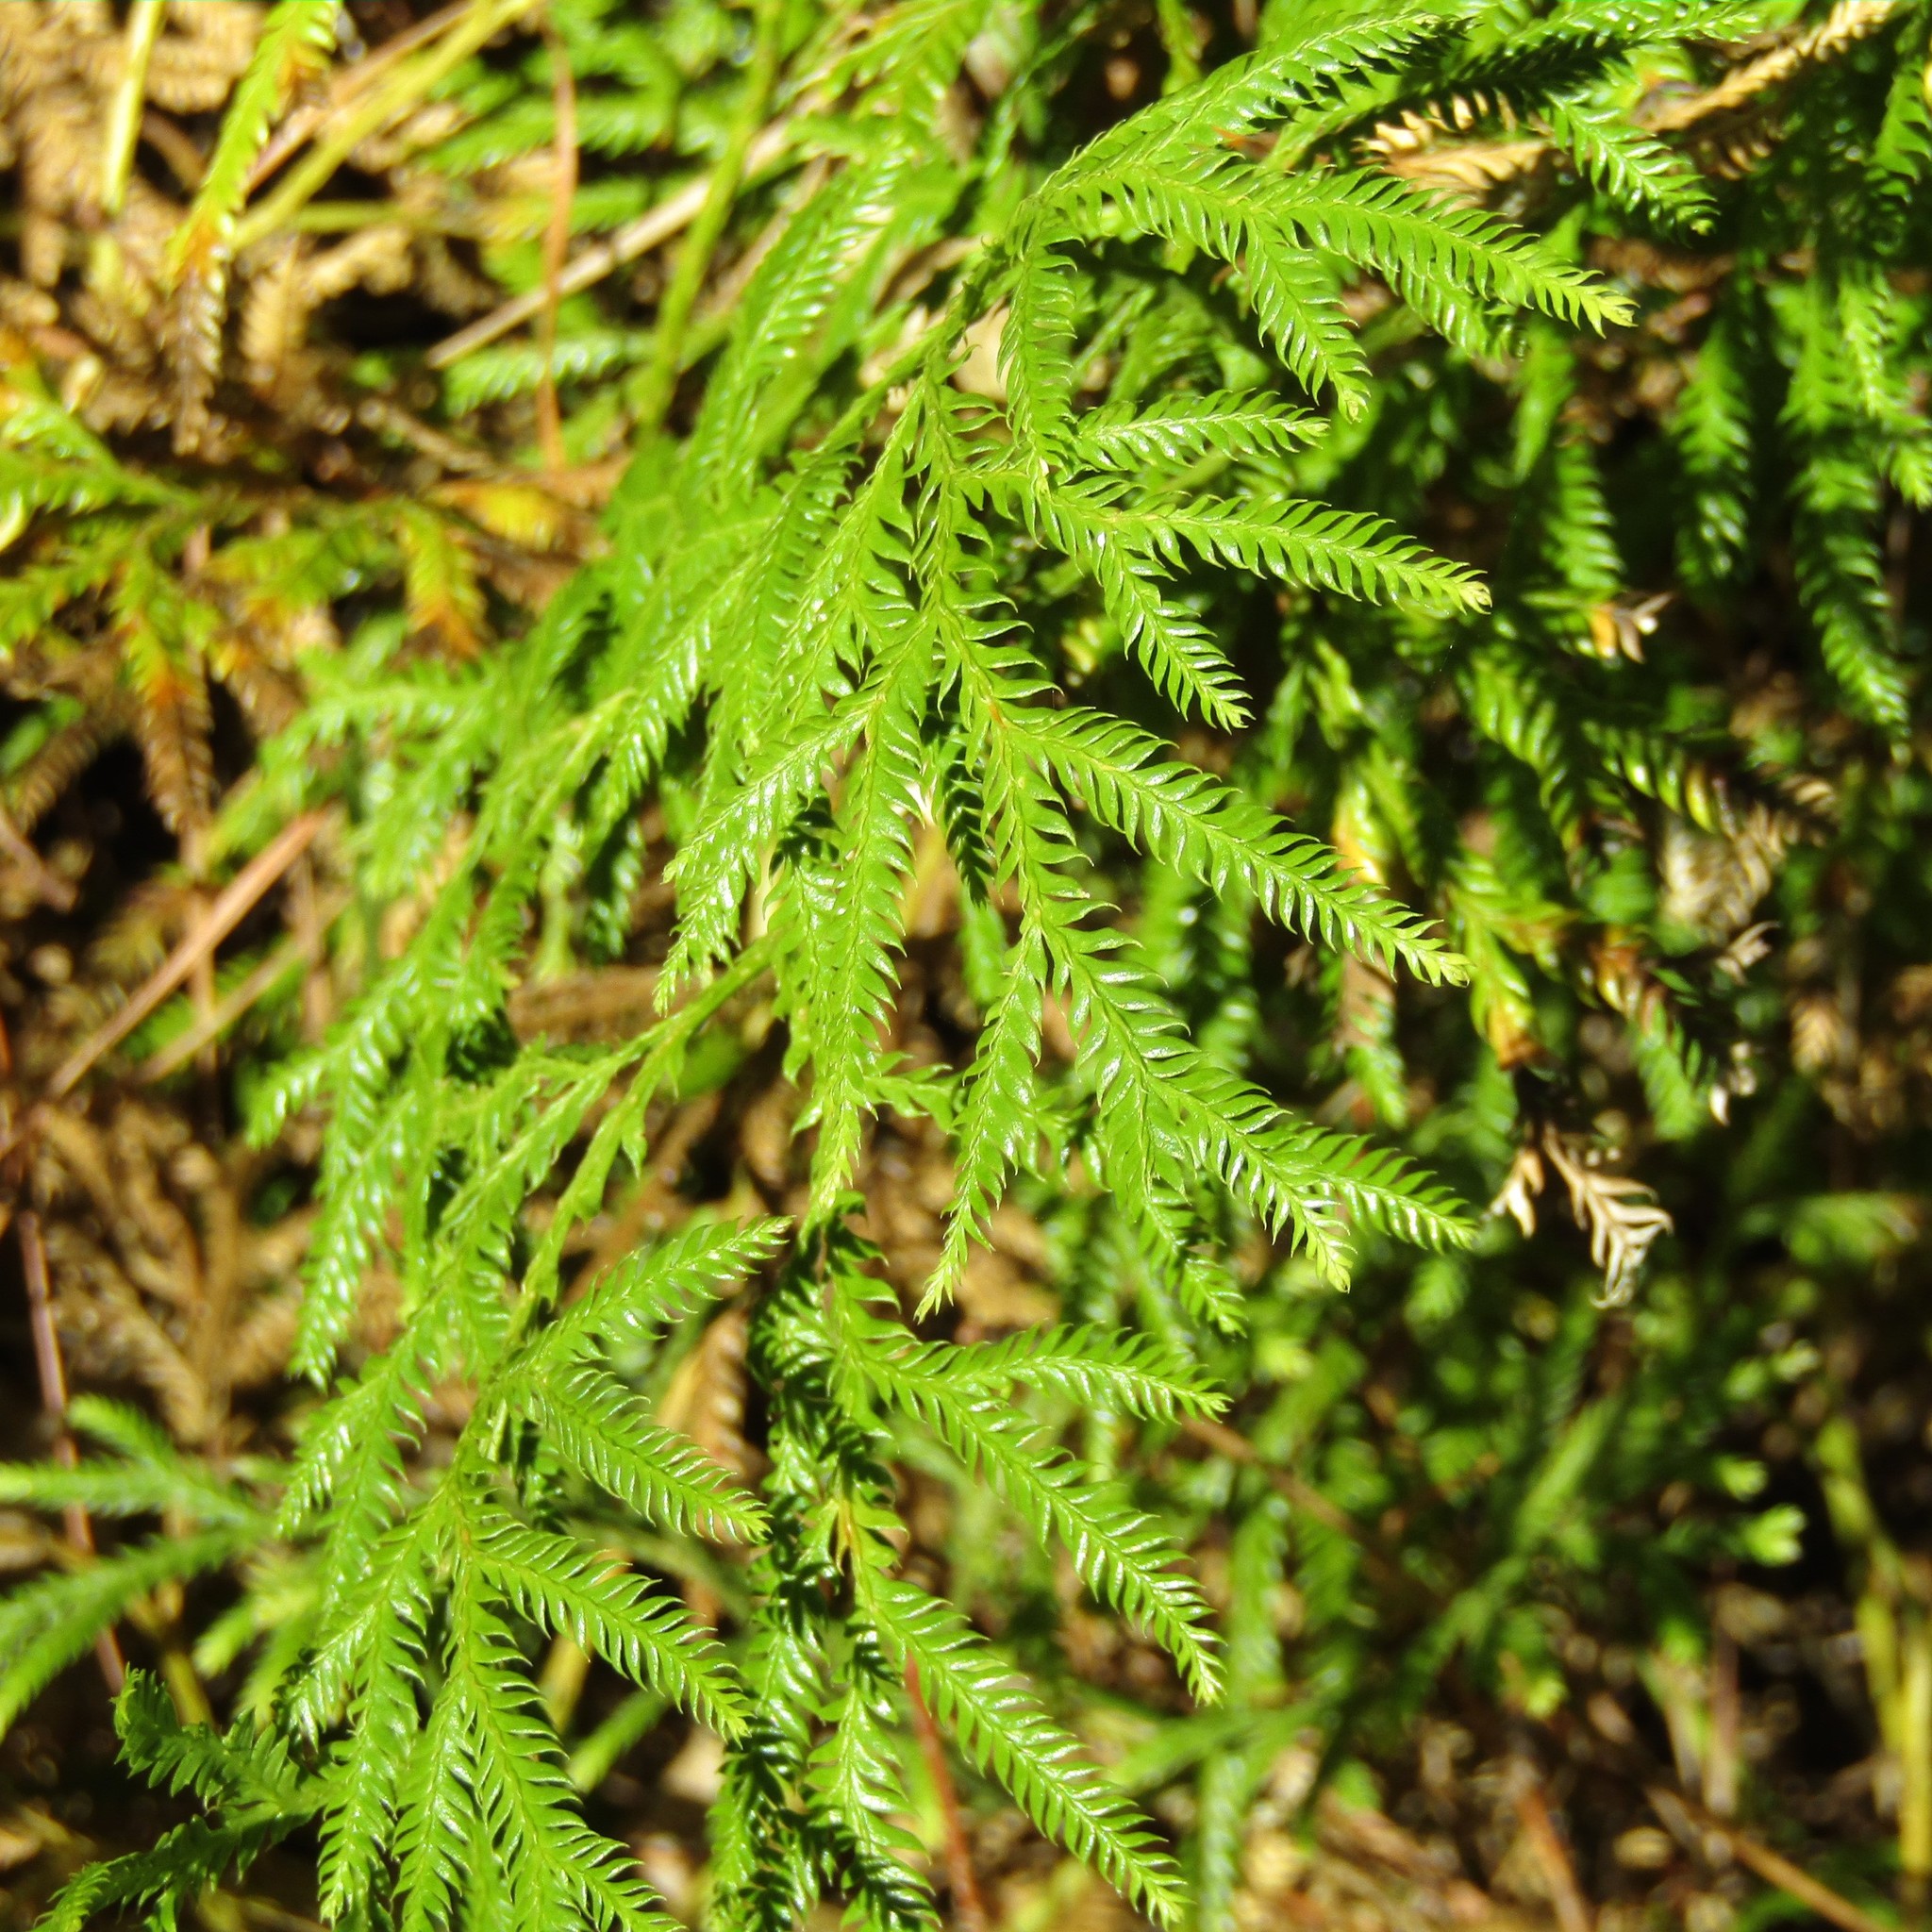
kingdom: Plantae
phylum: Tracheophyta
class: Lycopodiopsida
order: Lycopodiales
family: Lycopodiaceae
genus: Lycopodium
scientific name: Lycopodium volubile
